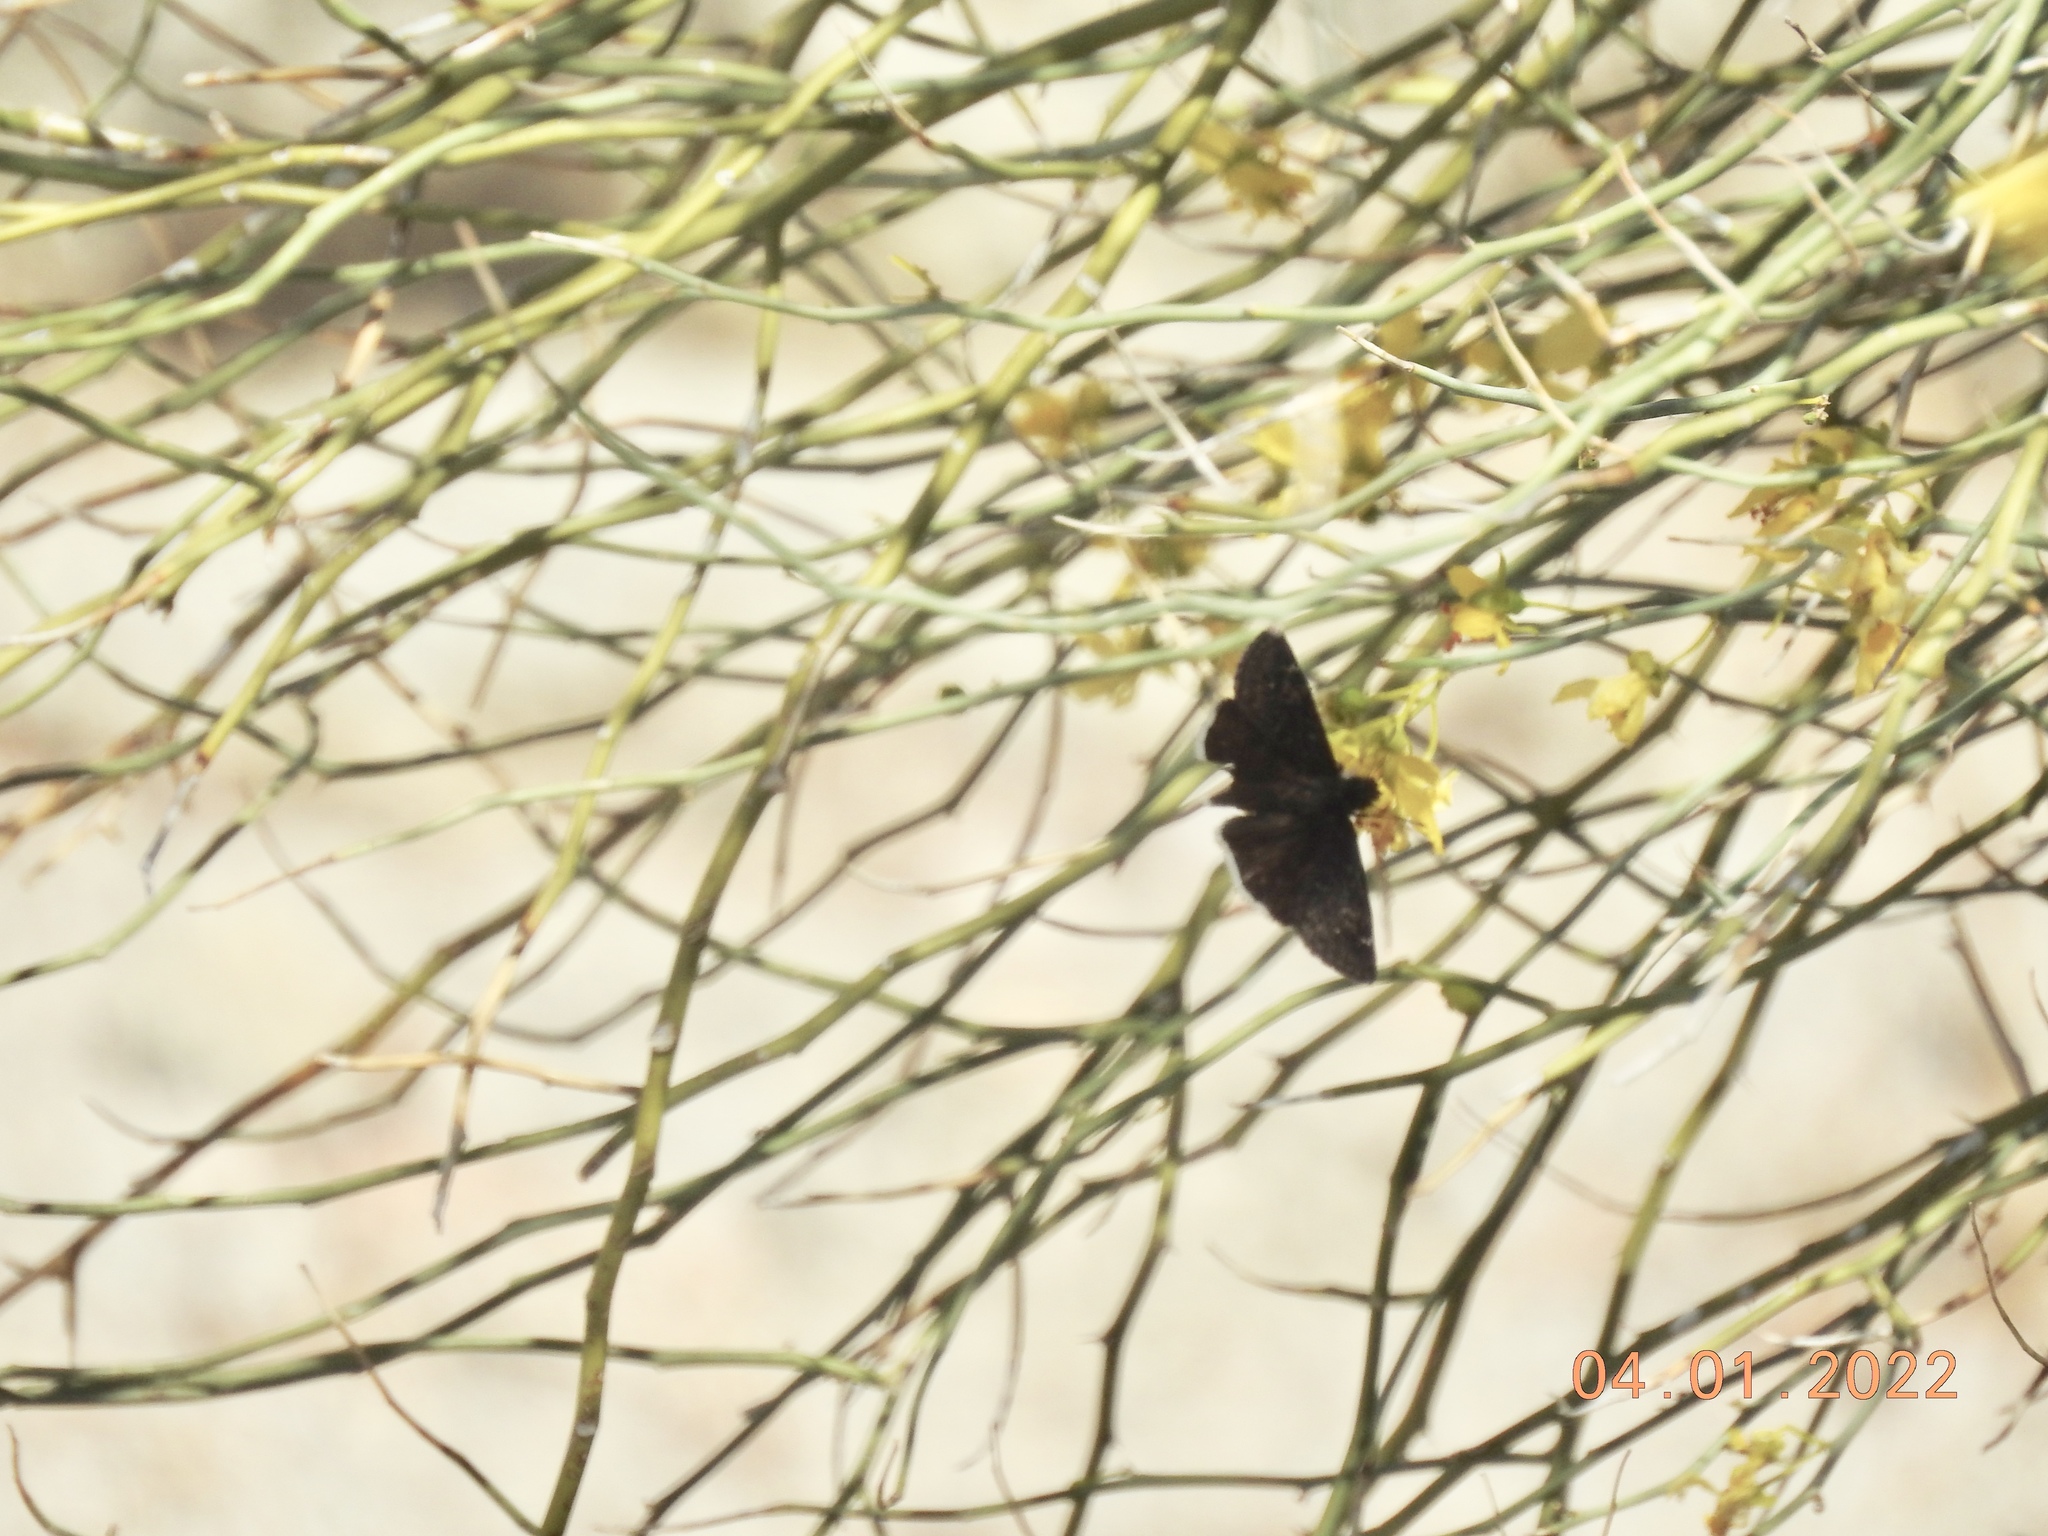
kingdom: Animalia
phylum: Arthropoda
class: Insecta
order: Lepidoptera
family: Hesperiidae
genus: Erynnis
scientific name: Erynnis funeralis
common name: Funereal duskywing
